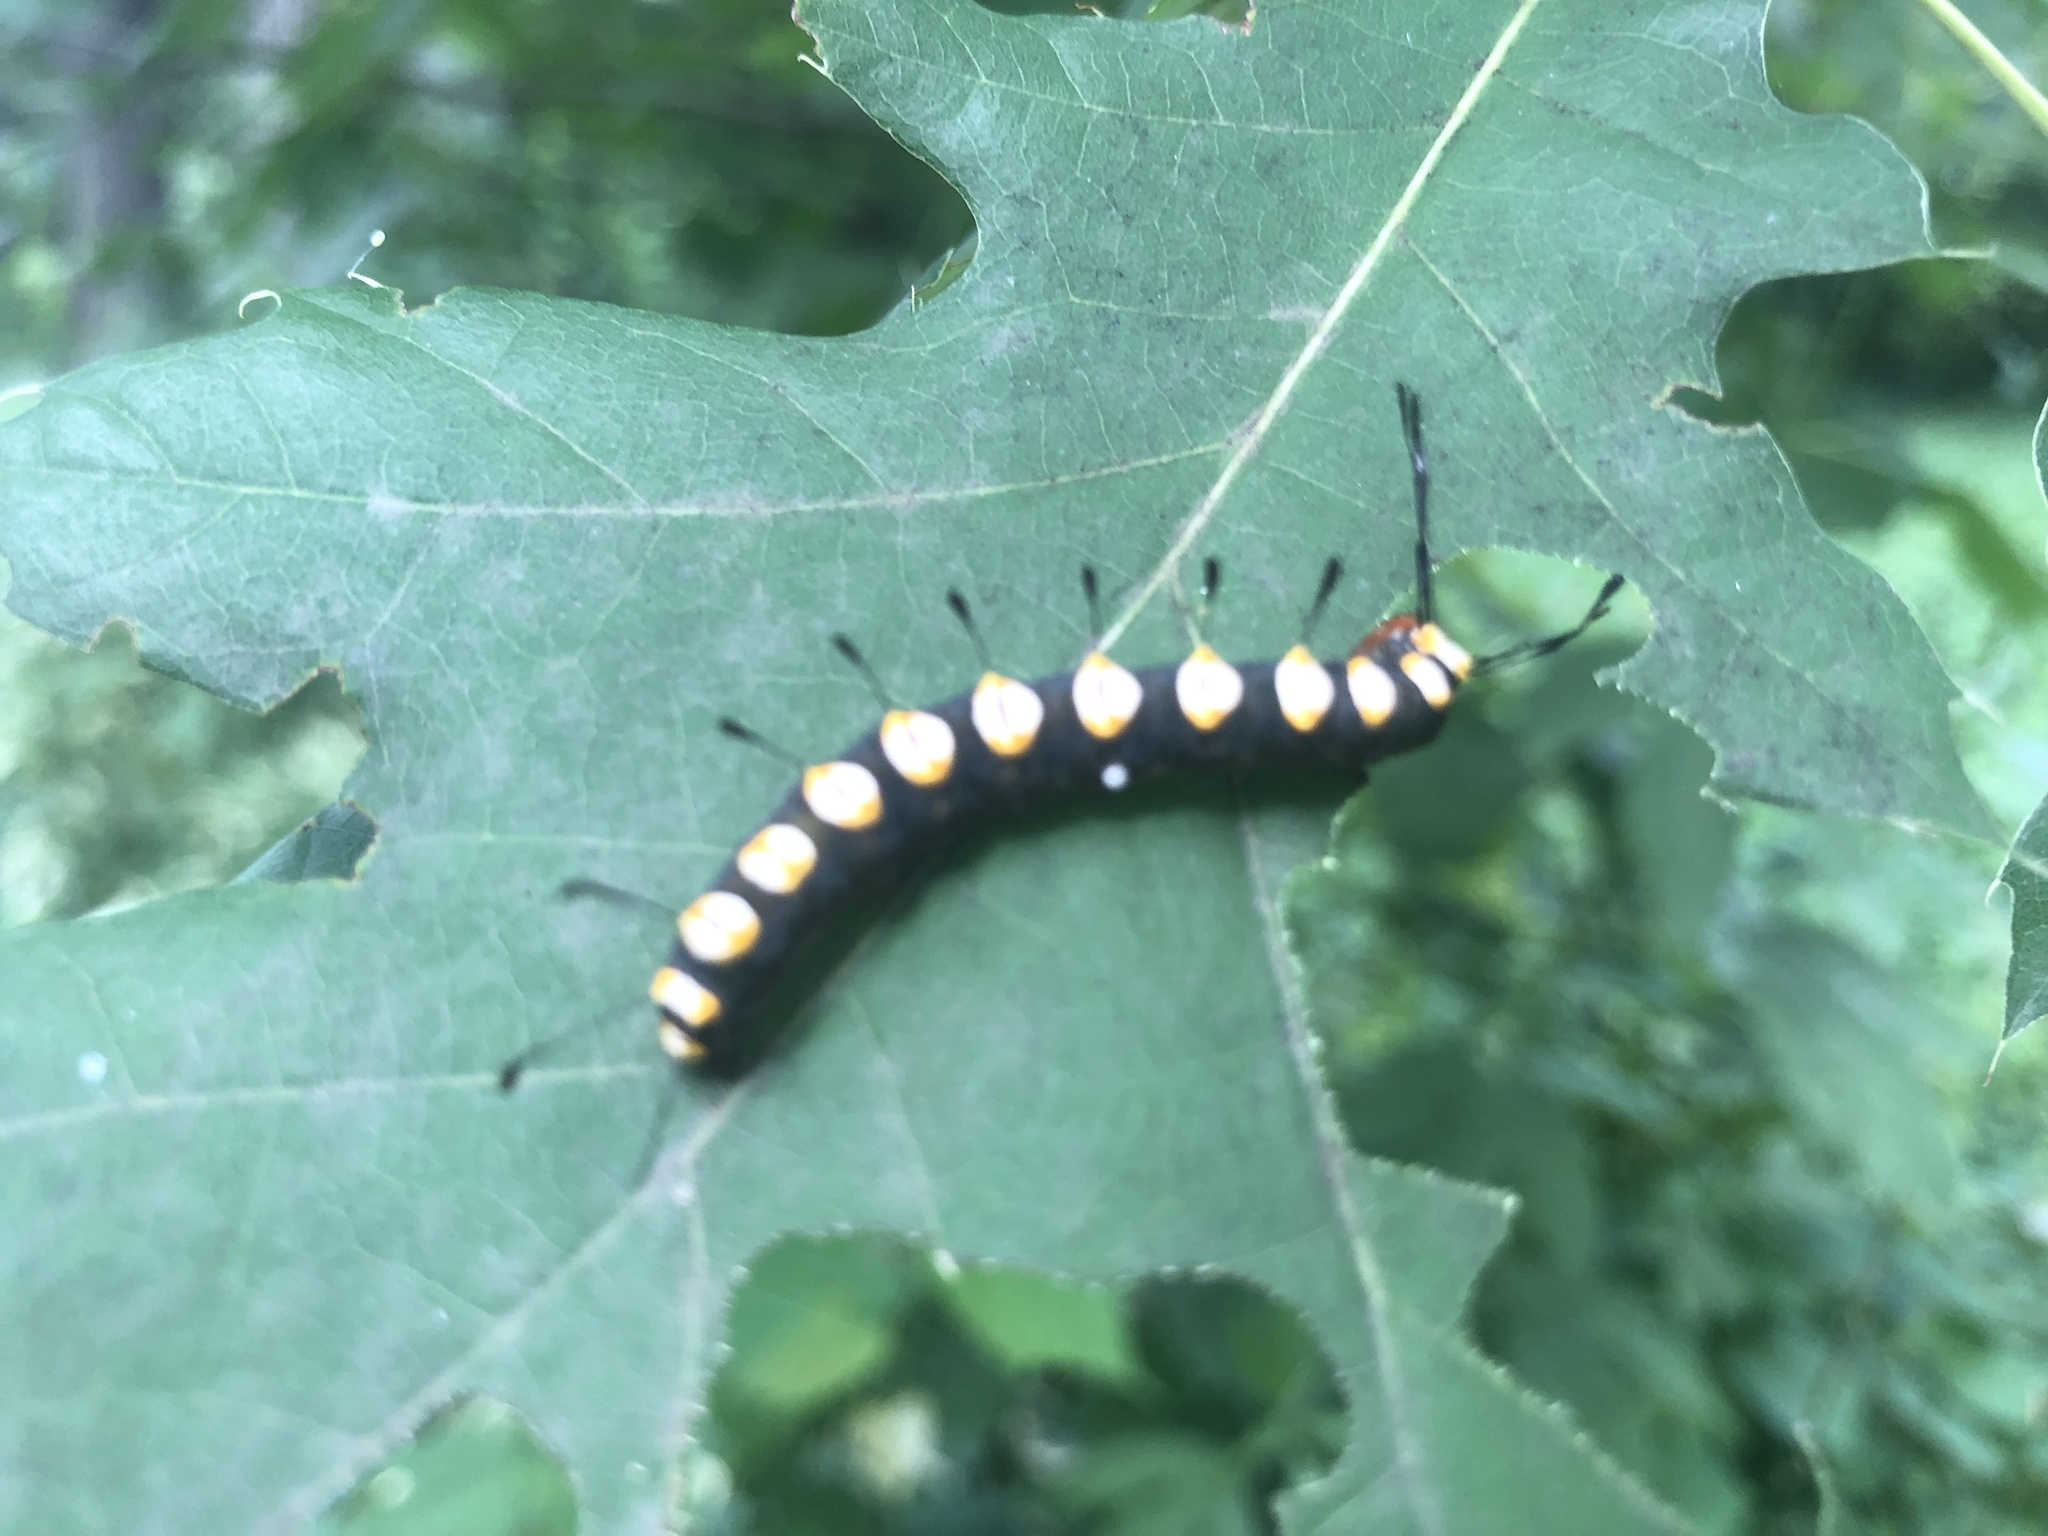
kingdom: Animalia
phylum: Arthropoda
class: Insecta
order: Lepidoptera
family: Noctuidae
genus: Acronicta
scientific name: Acronicta funeralis
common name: Funerary dagger
